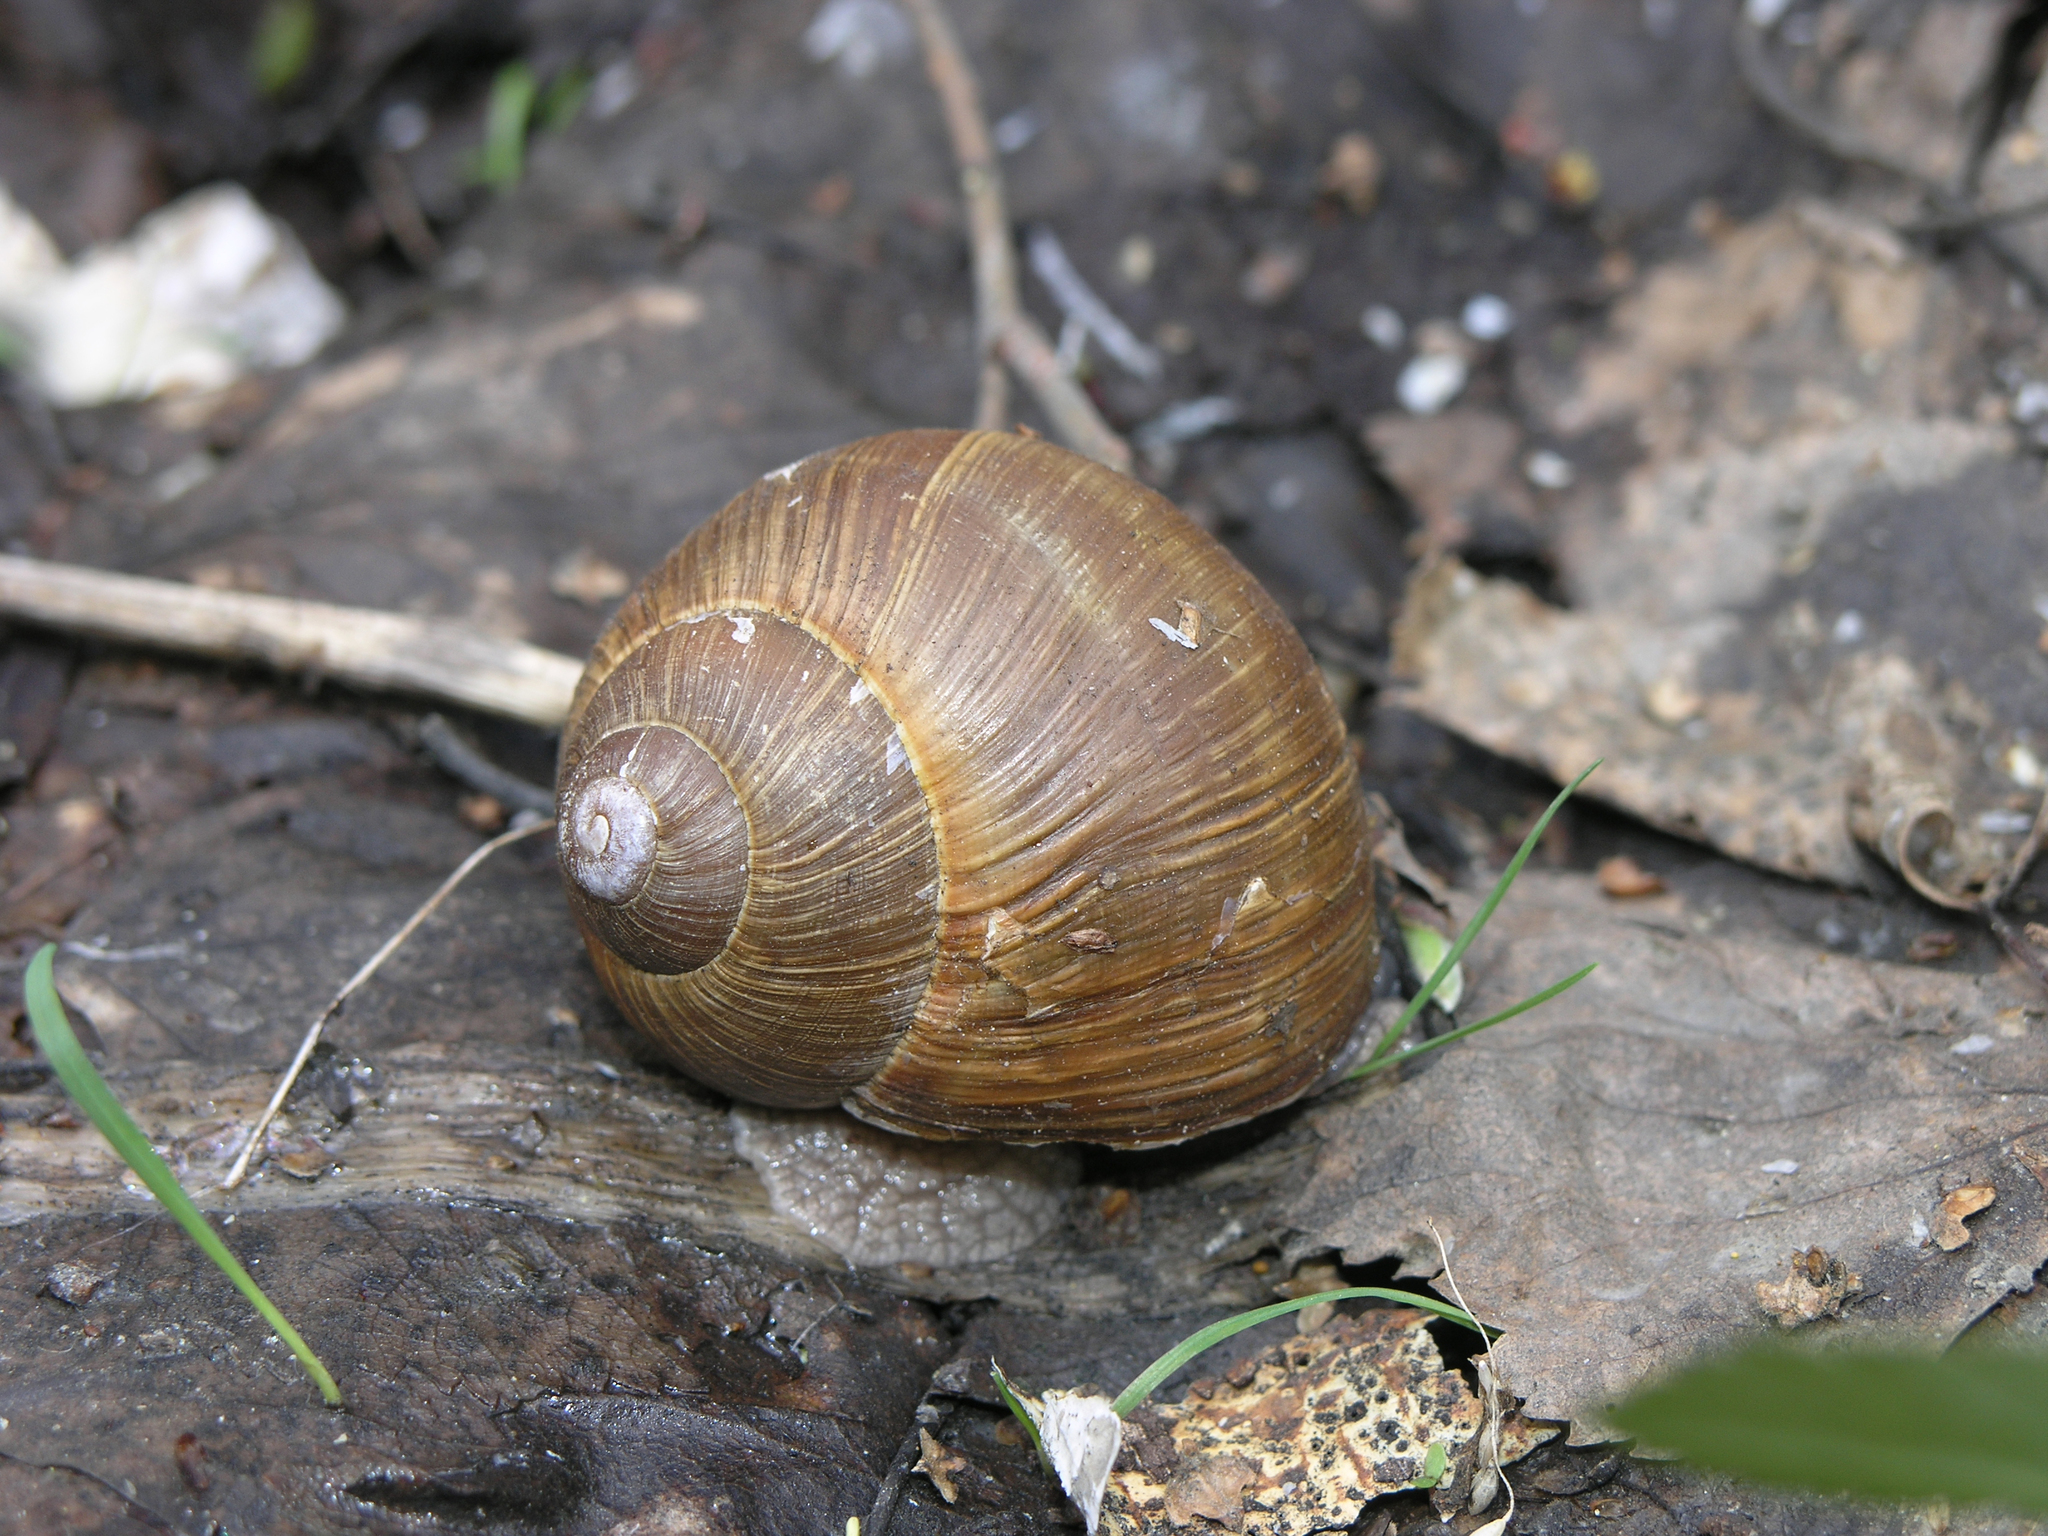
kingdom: Animalia
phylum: Mollusca
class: Gastropoda
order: Stylommatophora
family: Helicidae
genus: Helix
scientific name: Helix pomatia
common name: Roman snail
